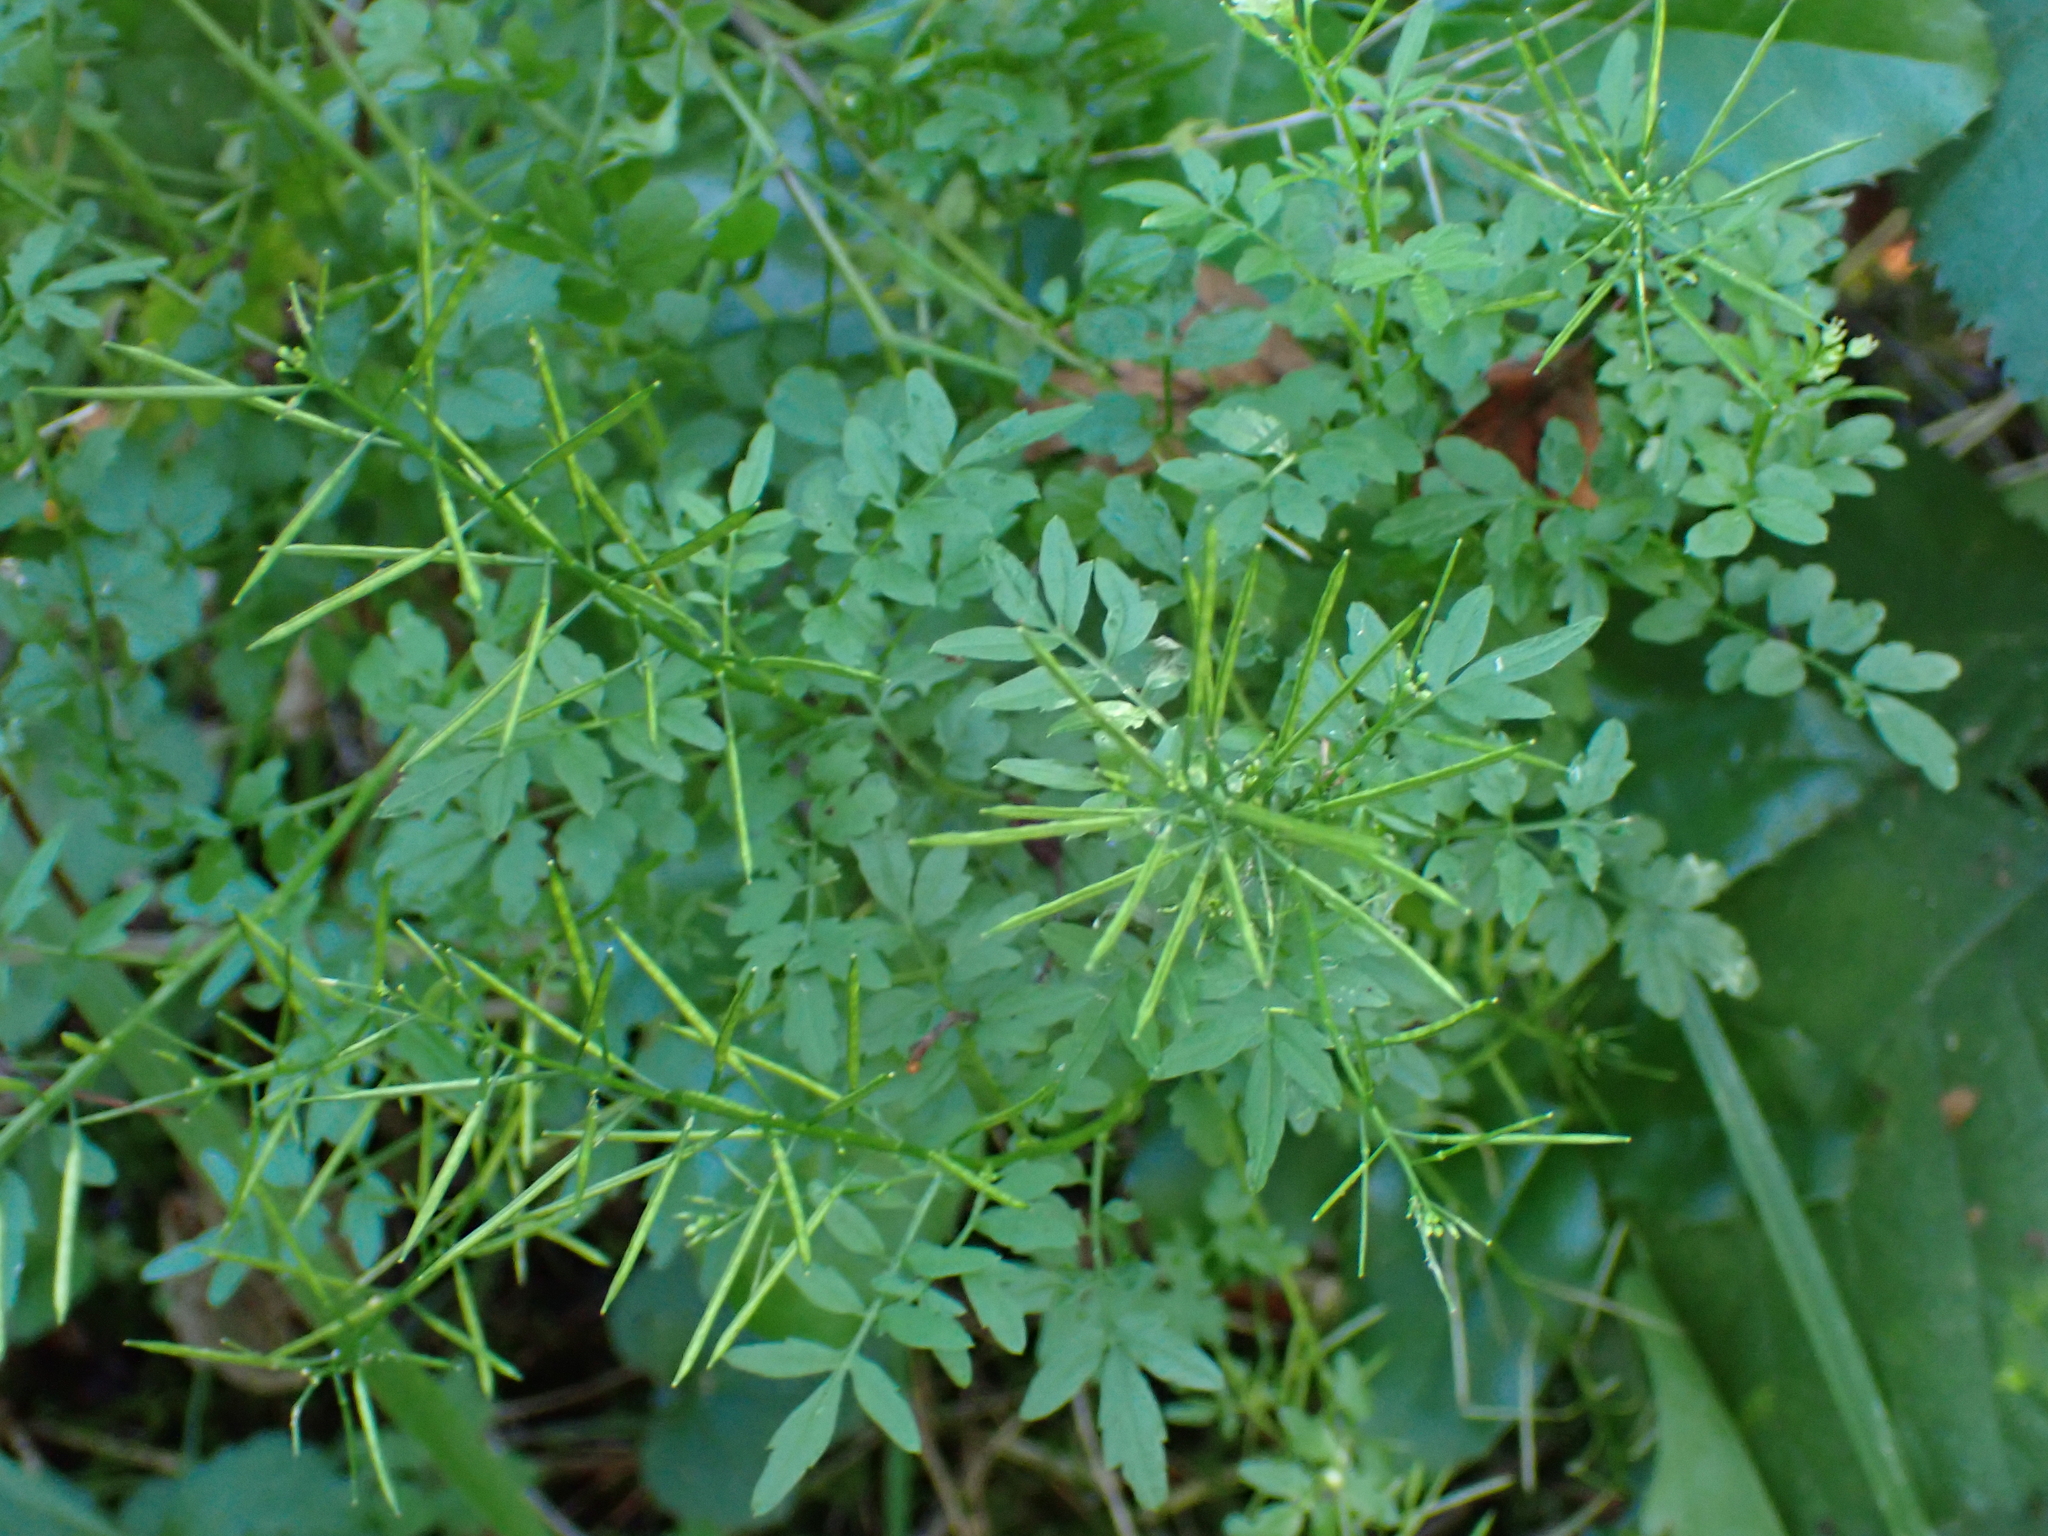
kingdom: Plantae
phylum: Tracheophyta
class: Magnoliopsida
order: Brassicales
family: Brassicaceae
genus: Cardamine
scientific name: Cardamine impatiens
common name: Narrow-leaved bitter-cress
